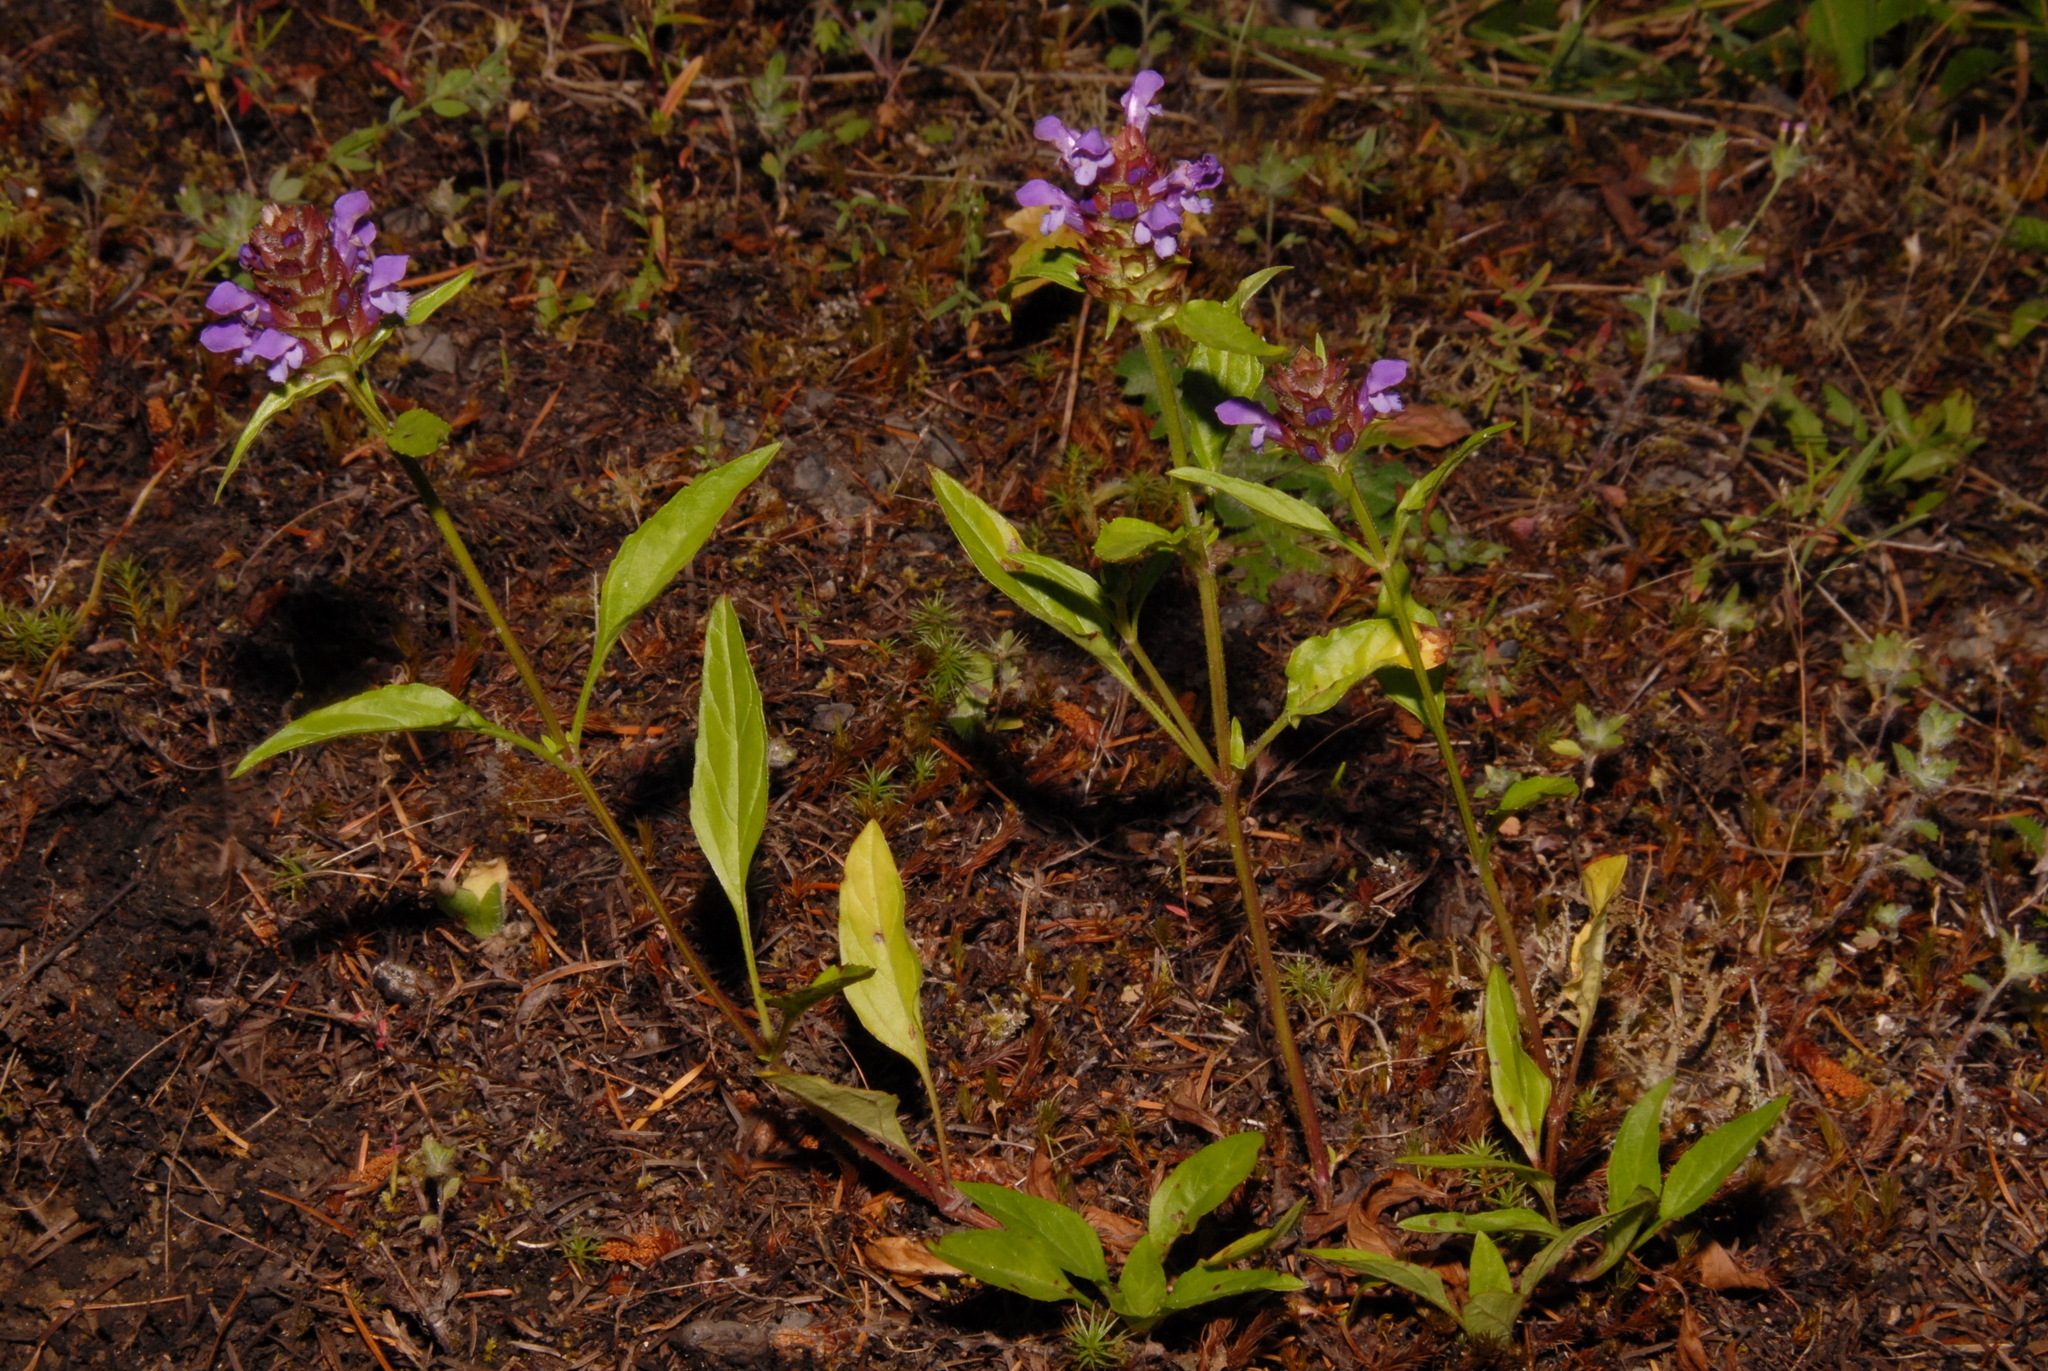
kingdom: Plantae
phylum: Tracheophyta
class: Magnoliopsida
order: Lamiales
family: Lamiaceae
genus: Prunella
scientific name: Prunella vulgaris
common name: Heal-all
